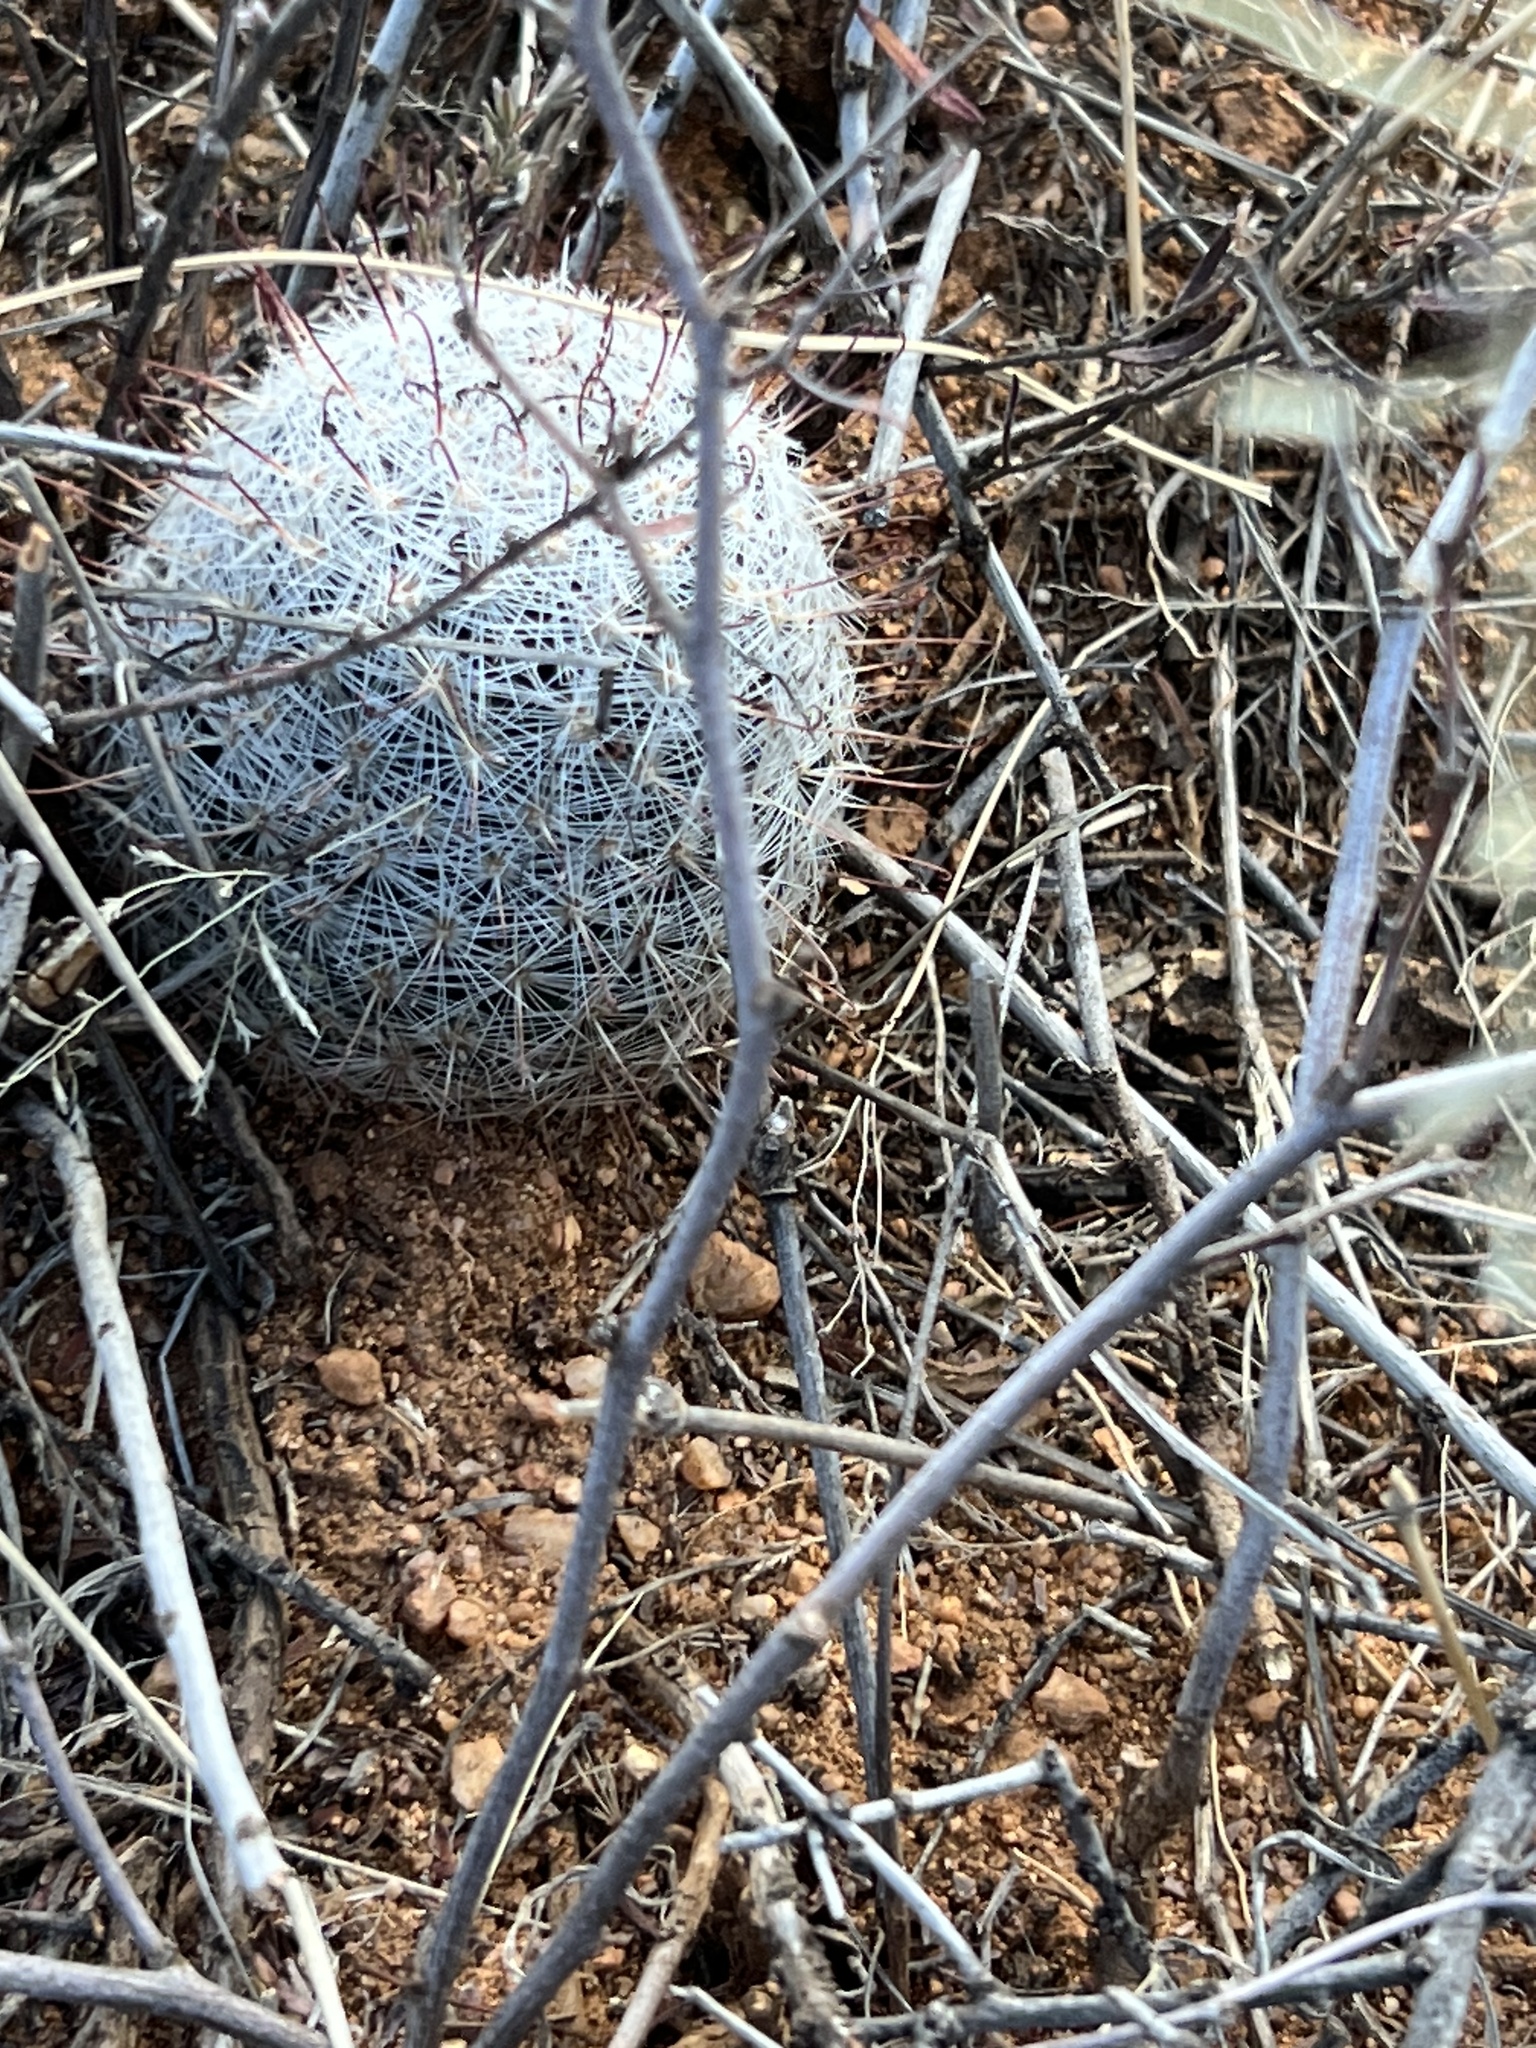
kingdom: Plantae
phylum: Tracheophyta
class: Magnoliopsida
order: Caryophyllales
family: Cactaceae
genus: Cochemiea
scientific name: Cochemiea grahamii
